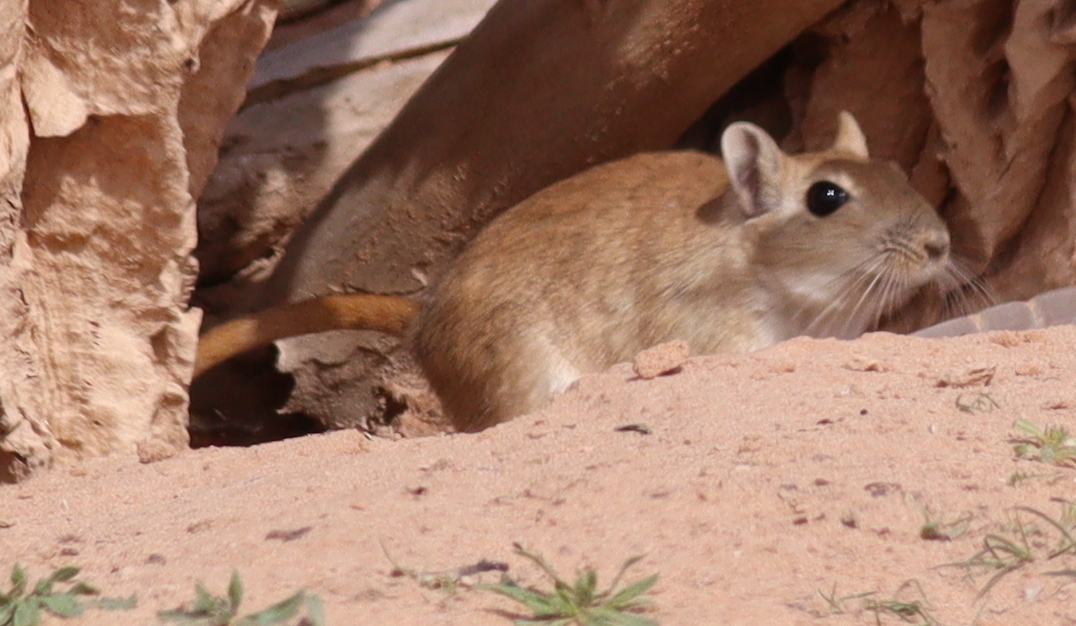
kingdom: Animalia
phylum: Chordata
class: Mammalia
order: Rodentia
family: Muridae
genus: Meriones
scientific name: Meriones libycus
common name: Libyan jird
